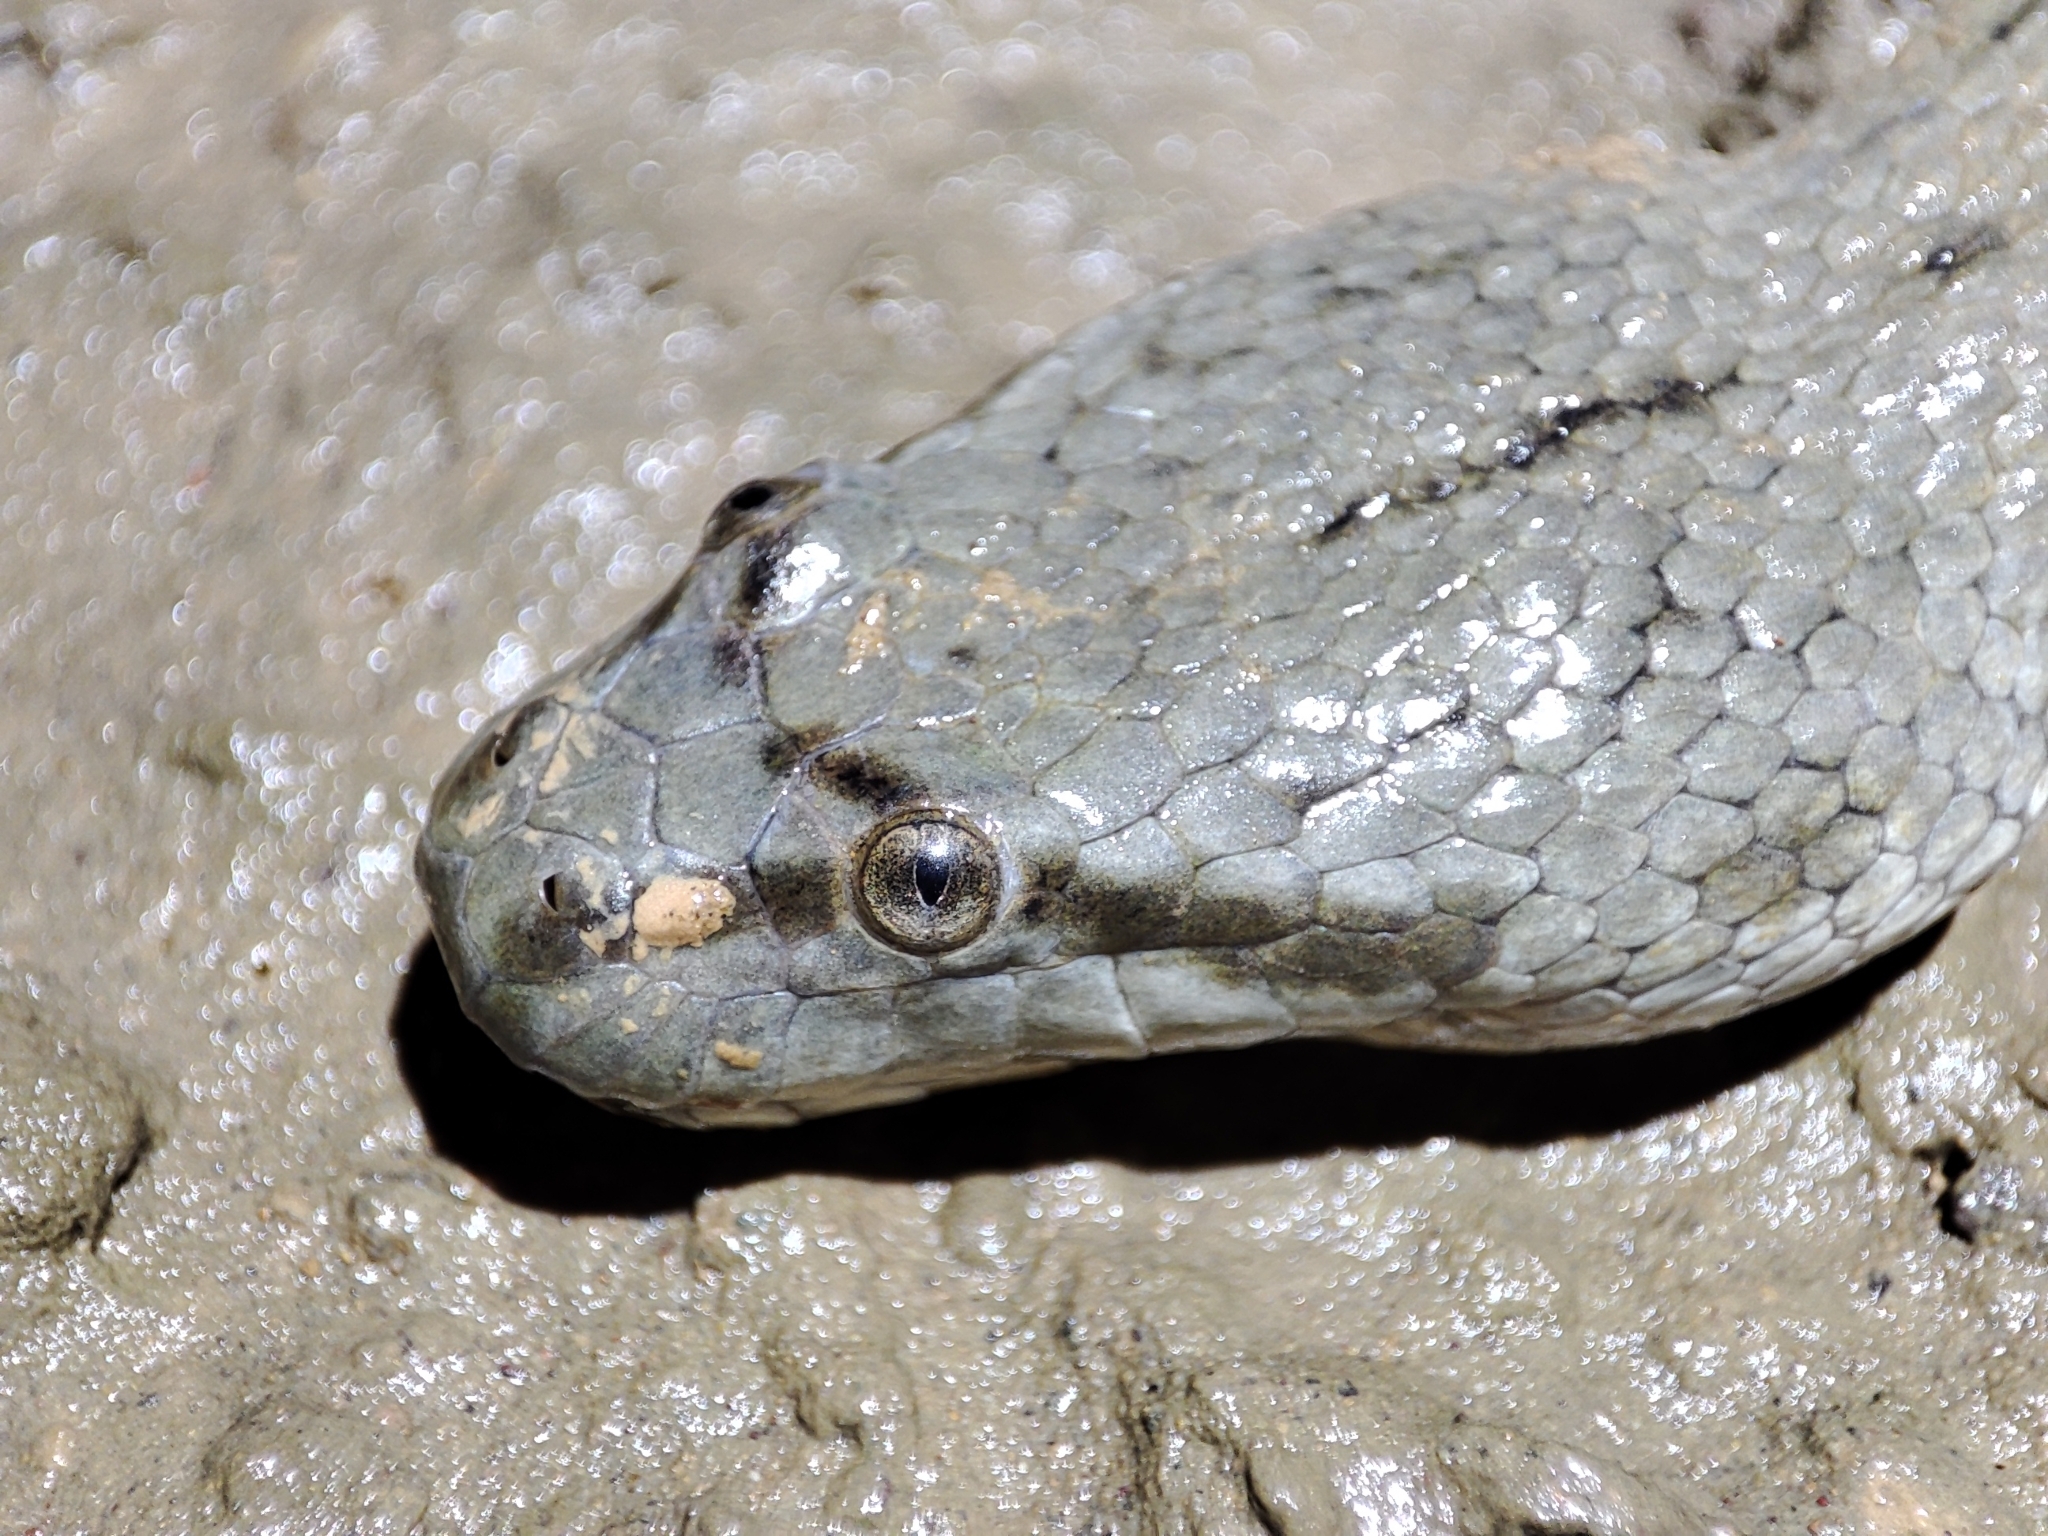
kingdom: Animalia
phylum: Chordata
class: Squamata
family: Homalopsidae
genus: Cerberus
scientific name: Cerberus schneiderii
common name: Southeast asian bockadam
